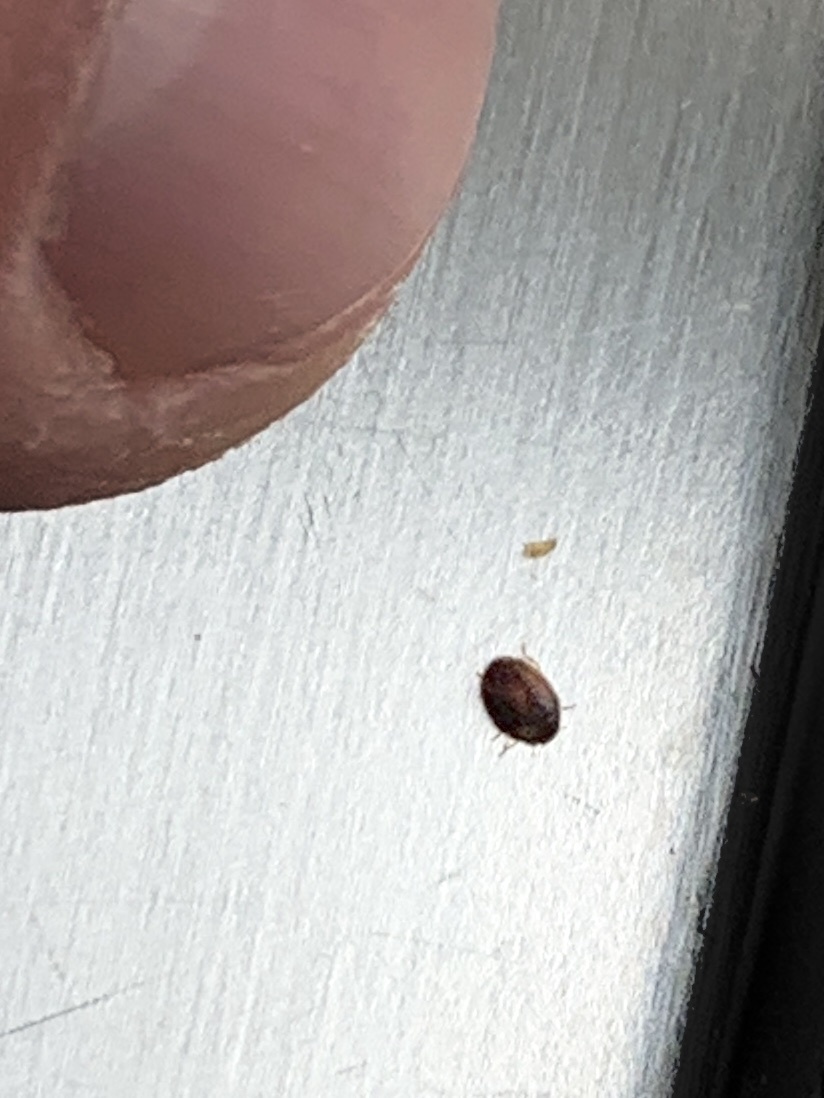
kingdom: Animalia
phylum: Arthropoda
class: Insecta
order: Coleoptera
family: Coccinellidae
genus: Novius
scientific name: Novius cardinalis
